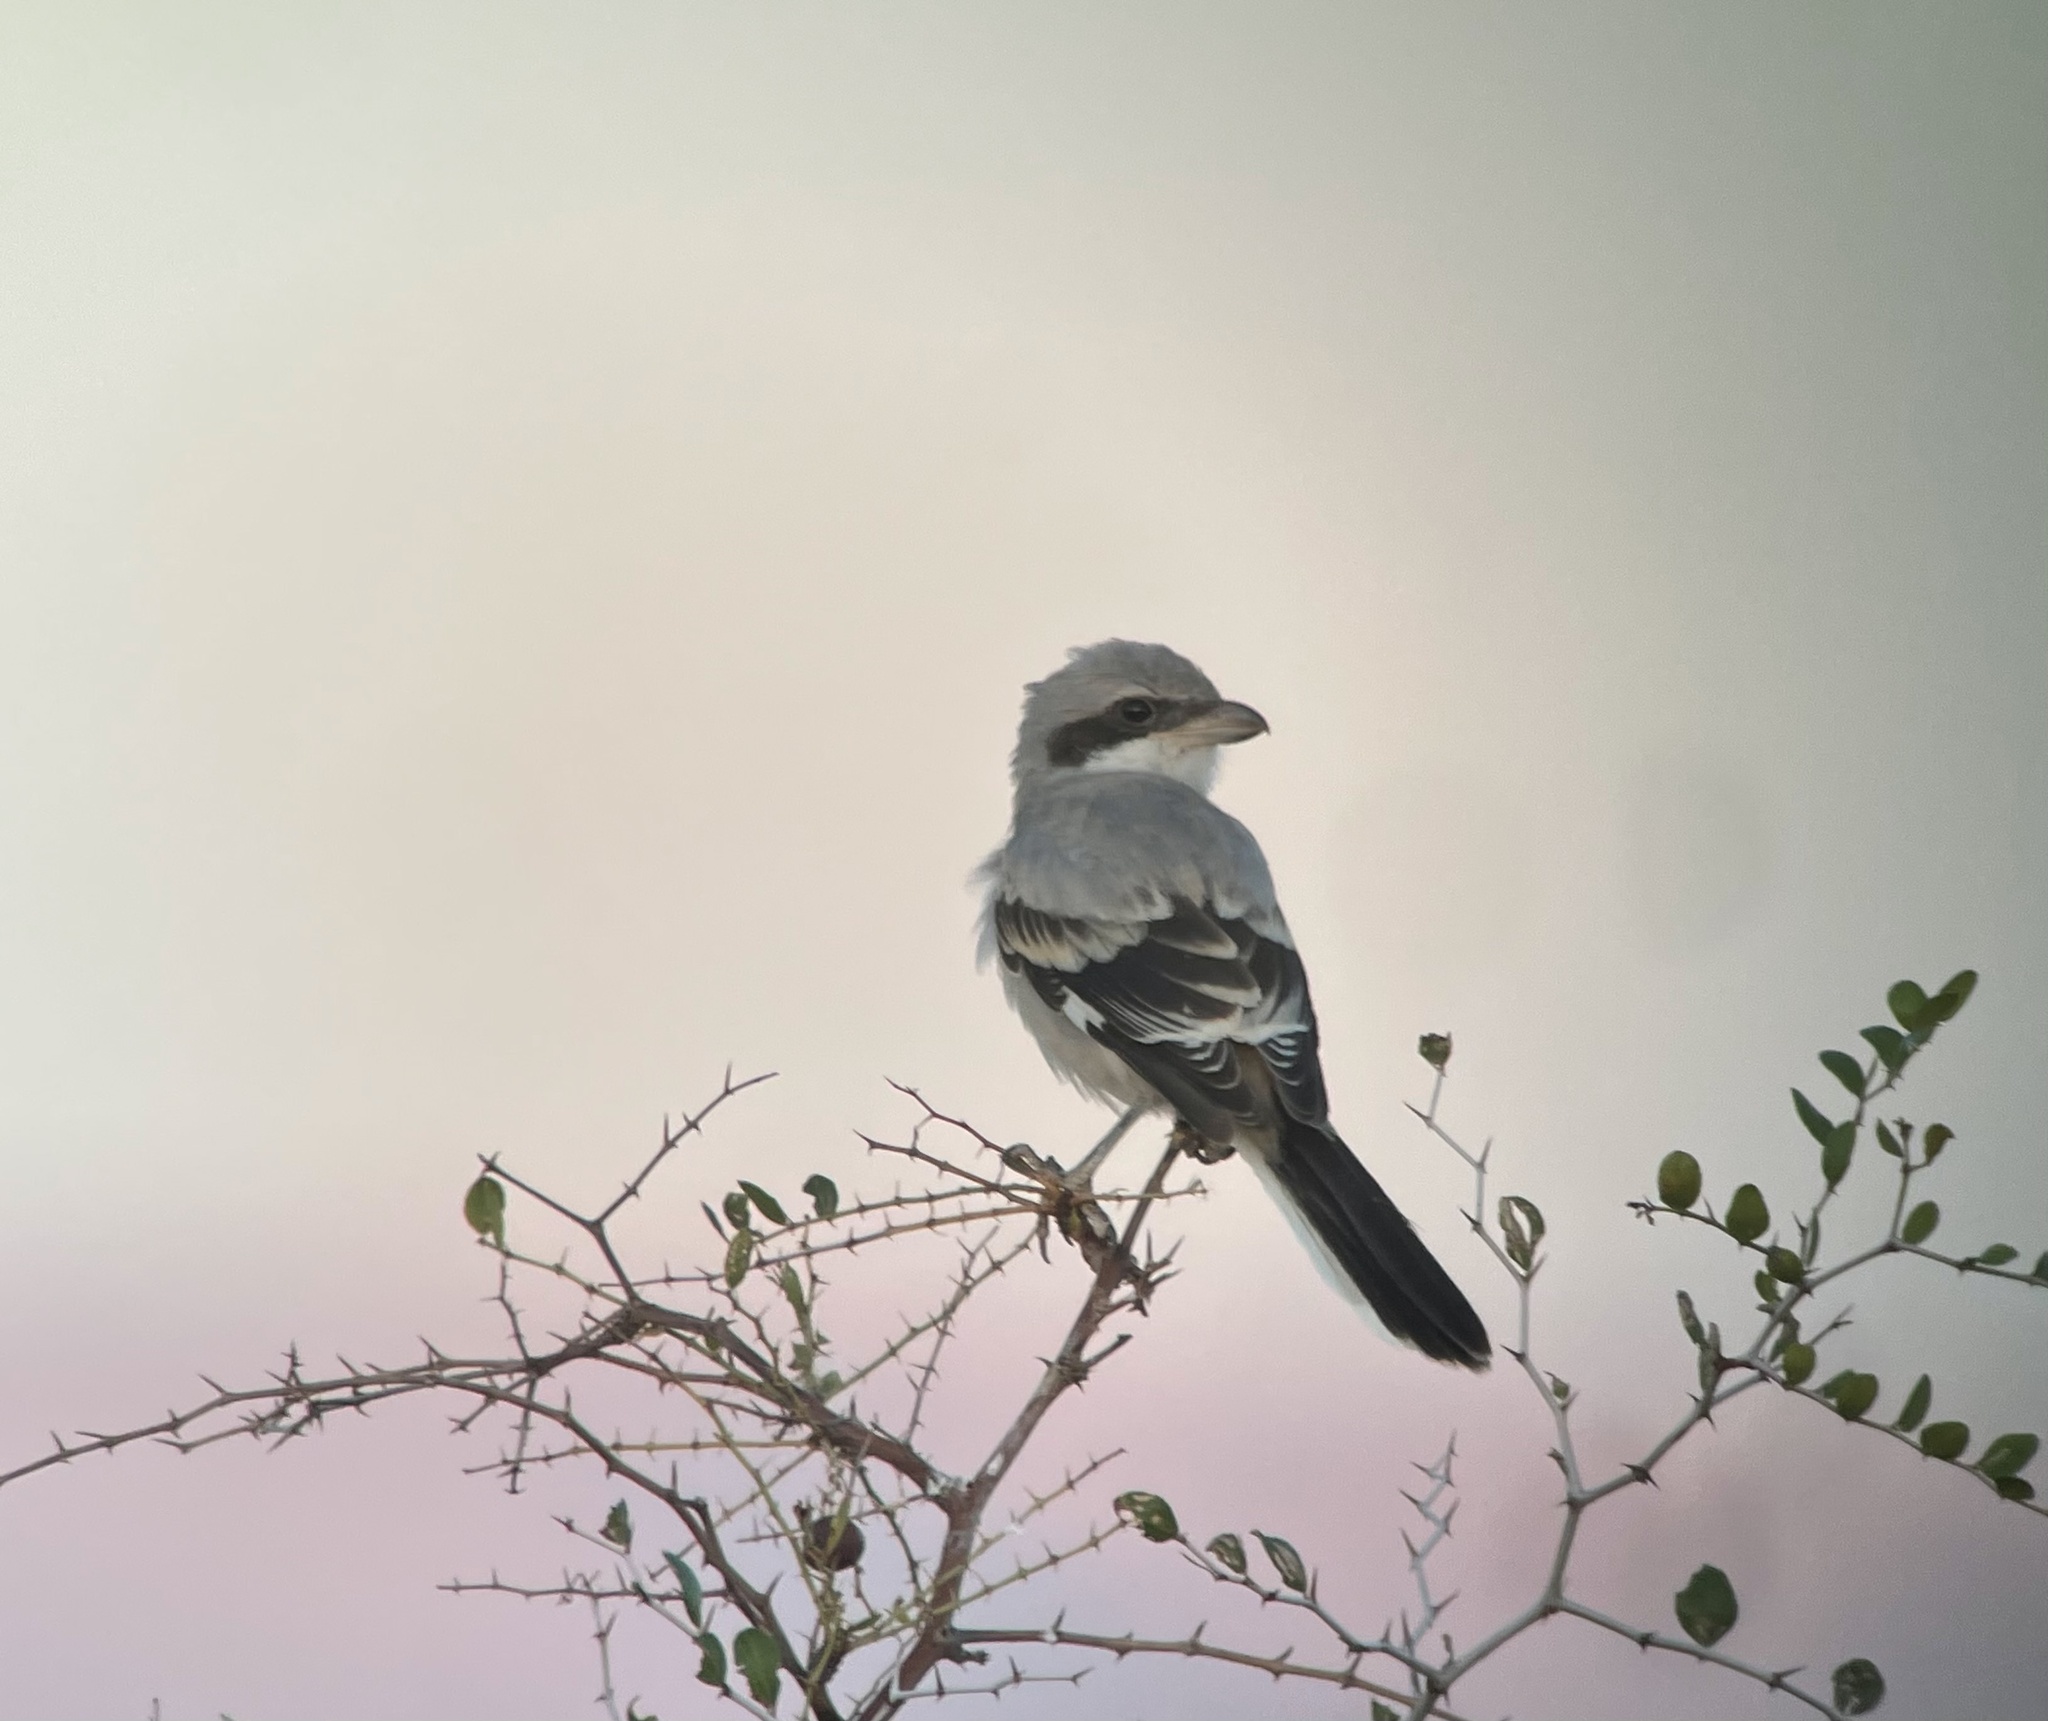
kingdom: Animalia
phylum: Chordata
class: Aves
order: Passeriformes
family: Laniidae
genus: Lanius
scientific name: Lanius excubitor
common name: Great grey shrike
